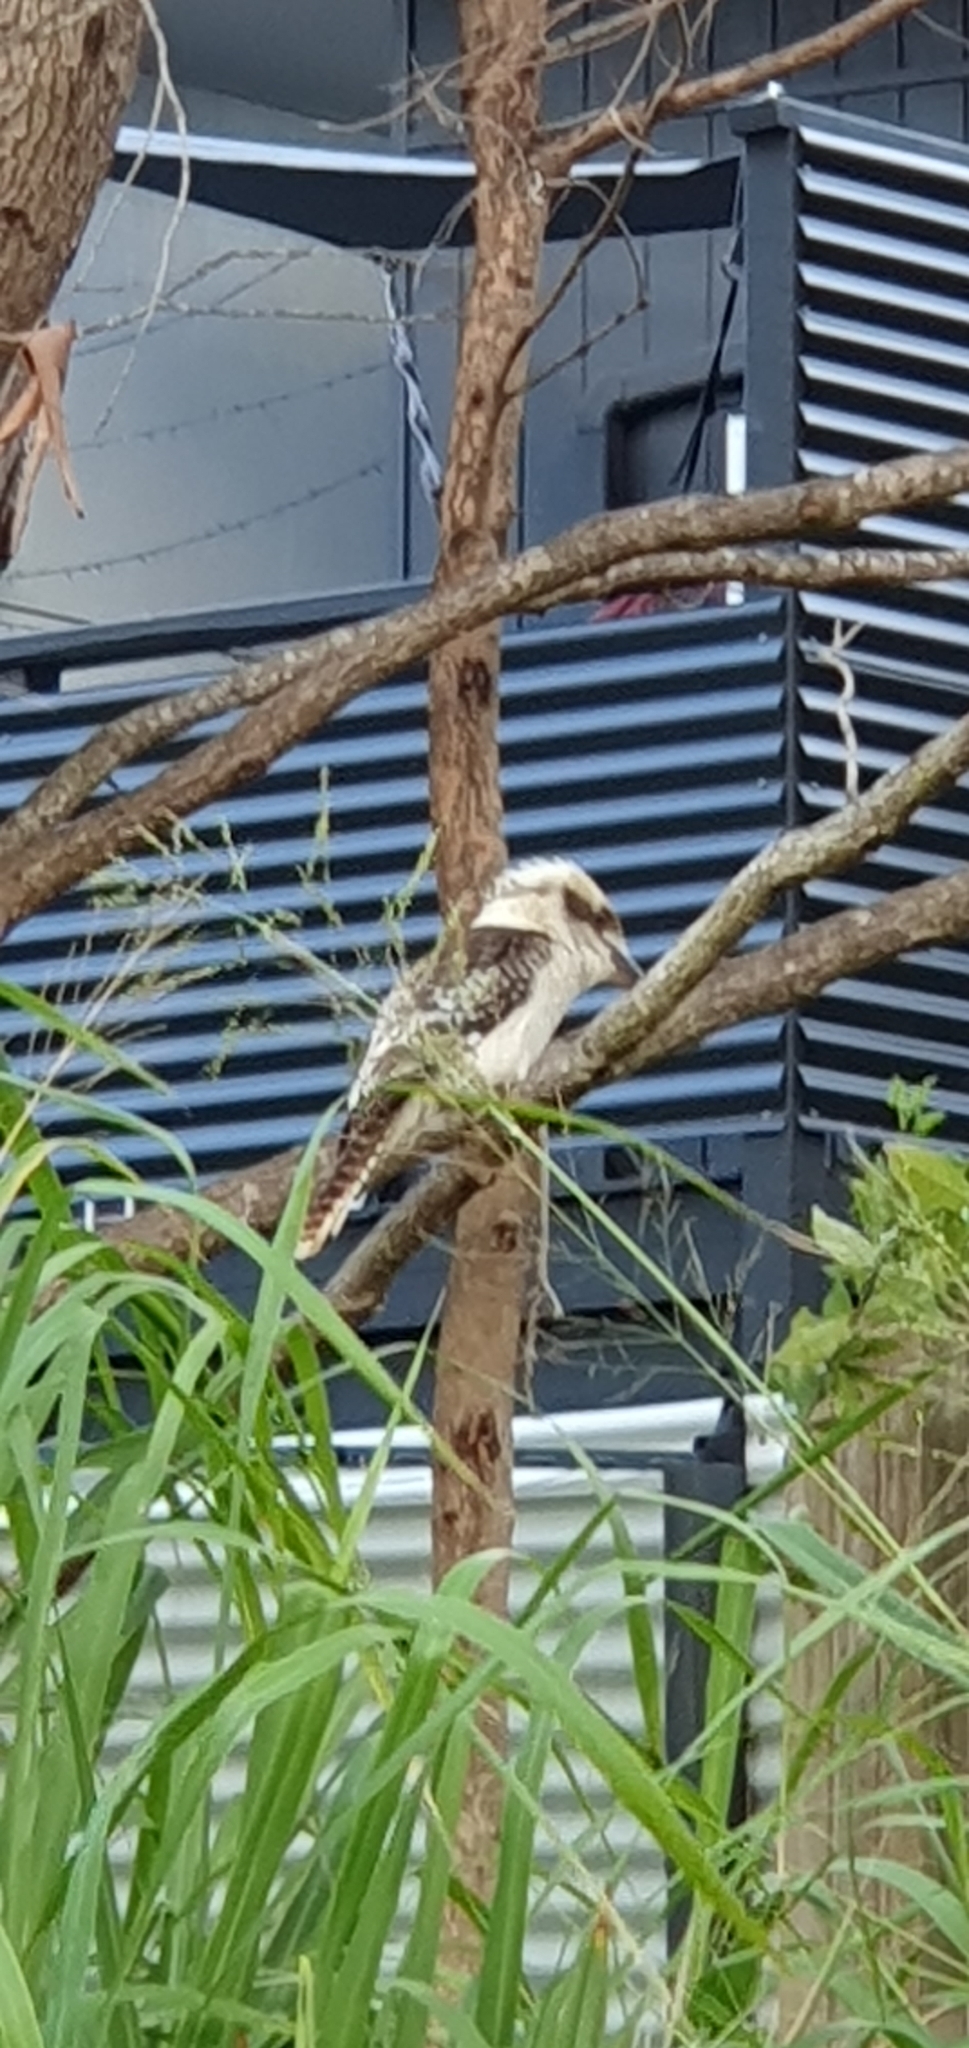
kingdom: Animalia
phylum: Chordata
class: Aves
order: Coraciiformes
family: Alcedinidae
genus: Dacelo
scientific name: Dacelo novaeguineae
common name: Laughing kookaburra
